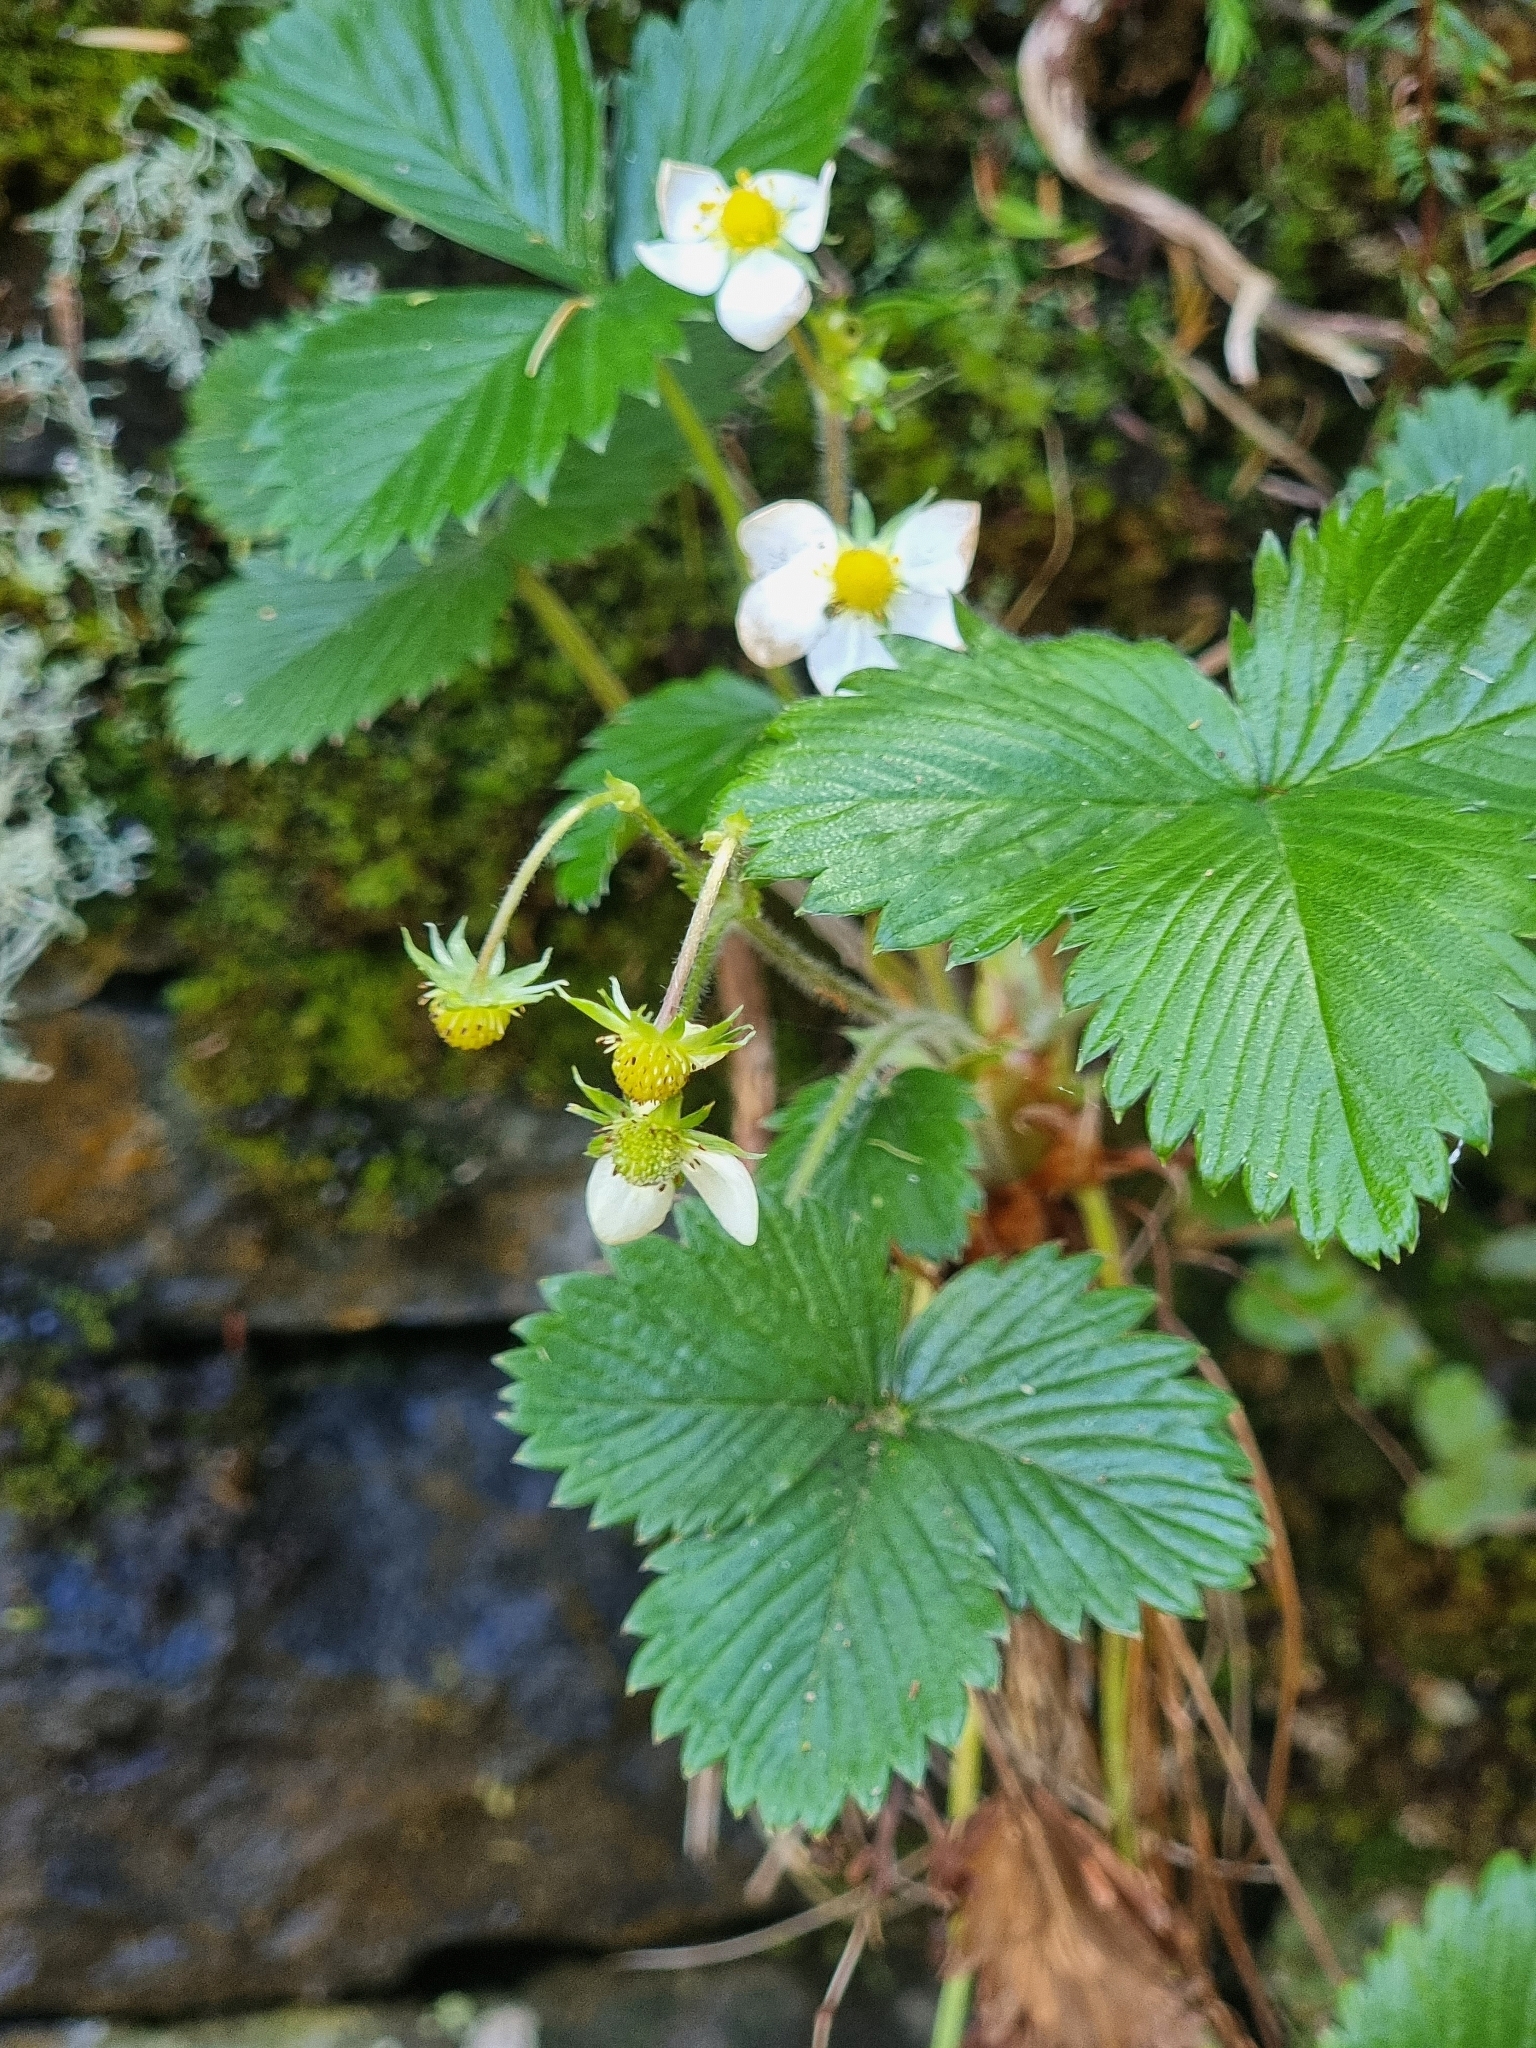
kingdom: Plantae
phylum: Tracheophyta
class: Magnoliopsida
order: Rosales
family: Rosaceae
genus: Fragaria
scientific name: Fragaria vesca
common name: Wild strawberry
